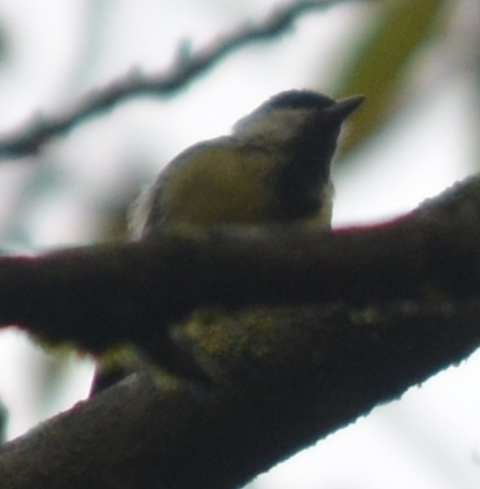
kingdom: Animalia
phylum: Chordata
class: Aves
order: Passeriformes
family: Paridae
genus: Parus
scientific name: Parus major
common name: Great tit
